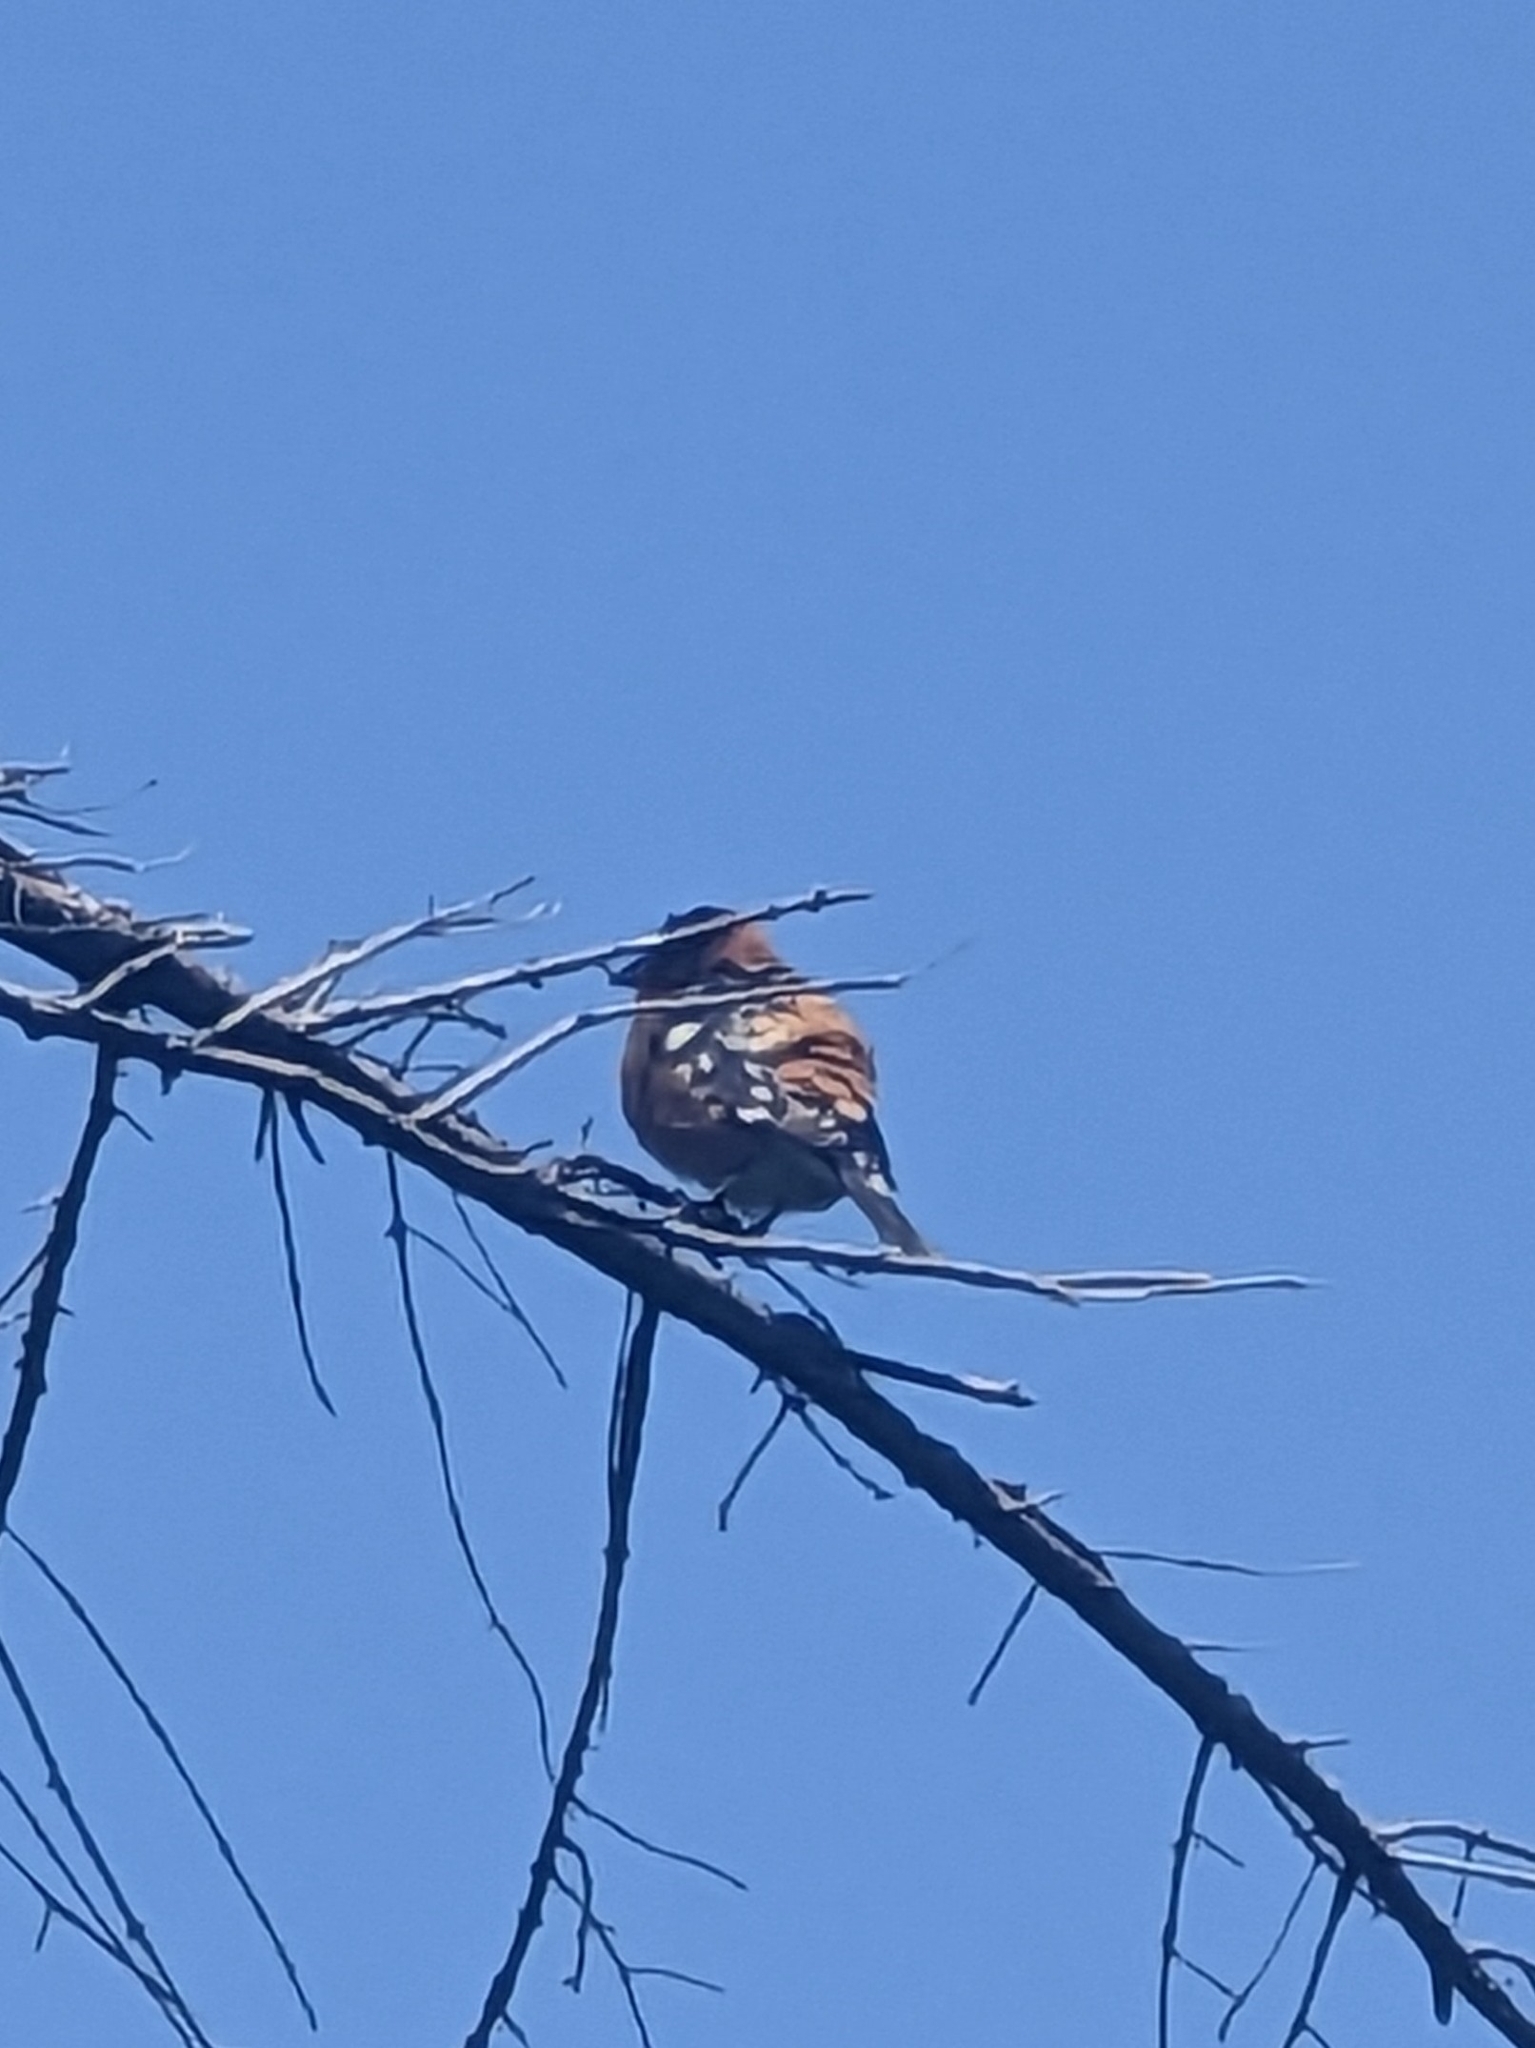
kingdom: Animalia
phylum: Chordata
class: Aves
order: Passeriformes
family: Cardinalidae
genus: Pheucticus
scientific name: Pheucticus melanocephalus
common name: Black-headed grosbeak
